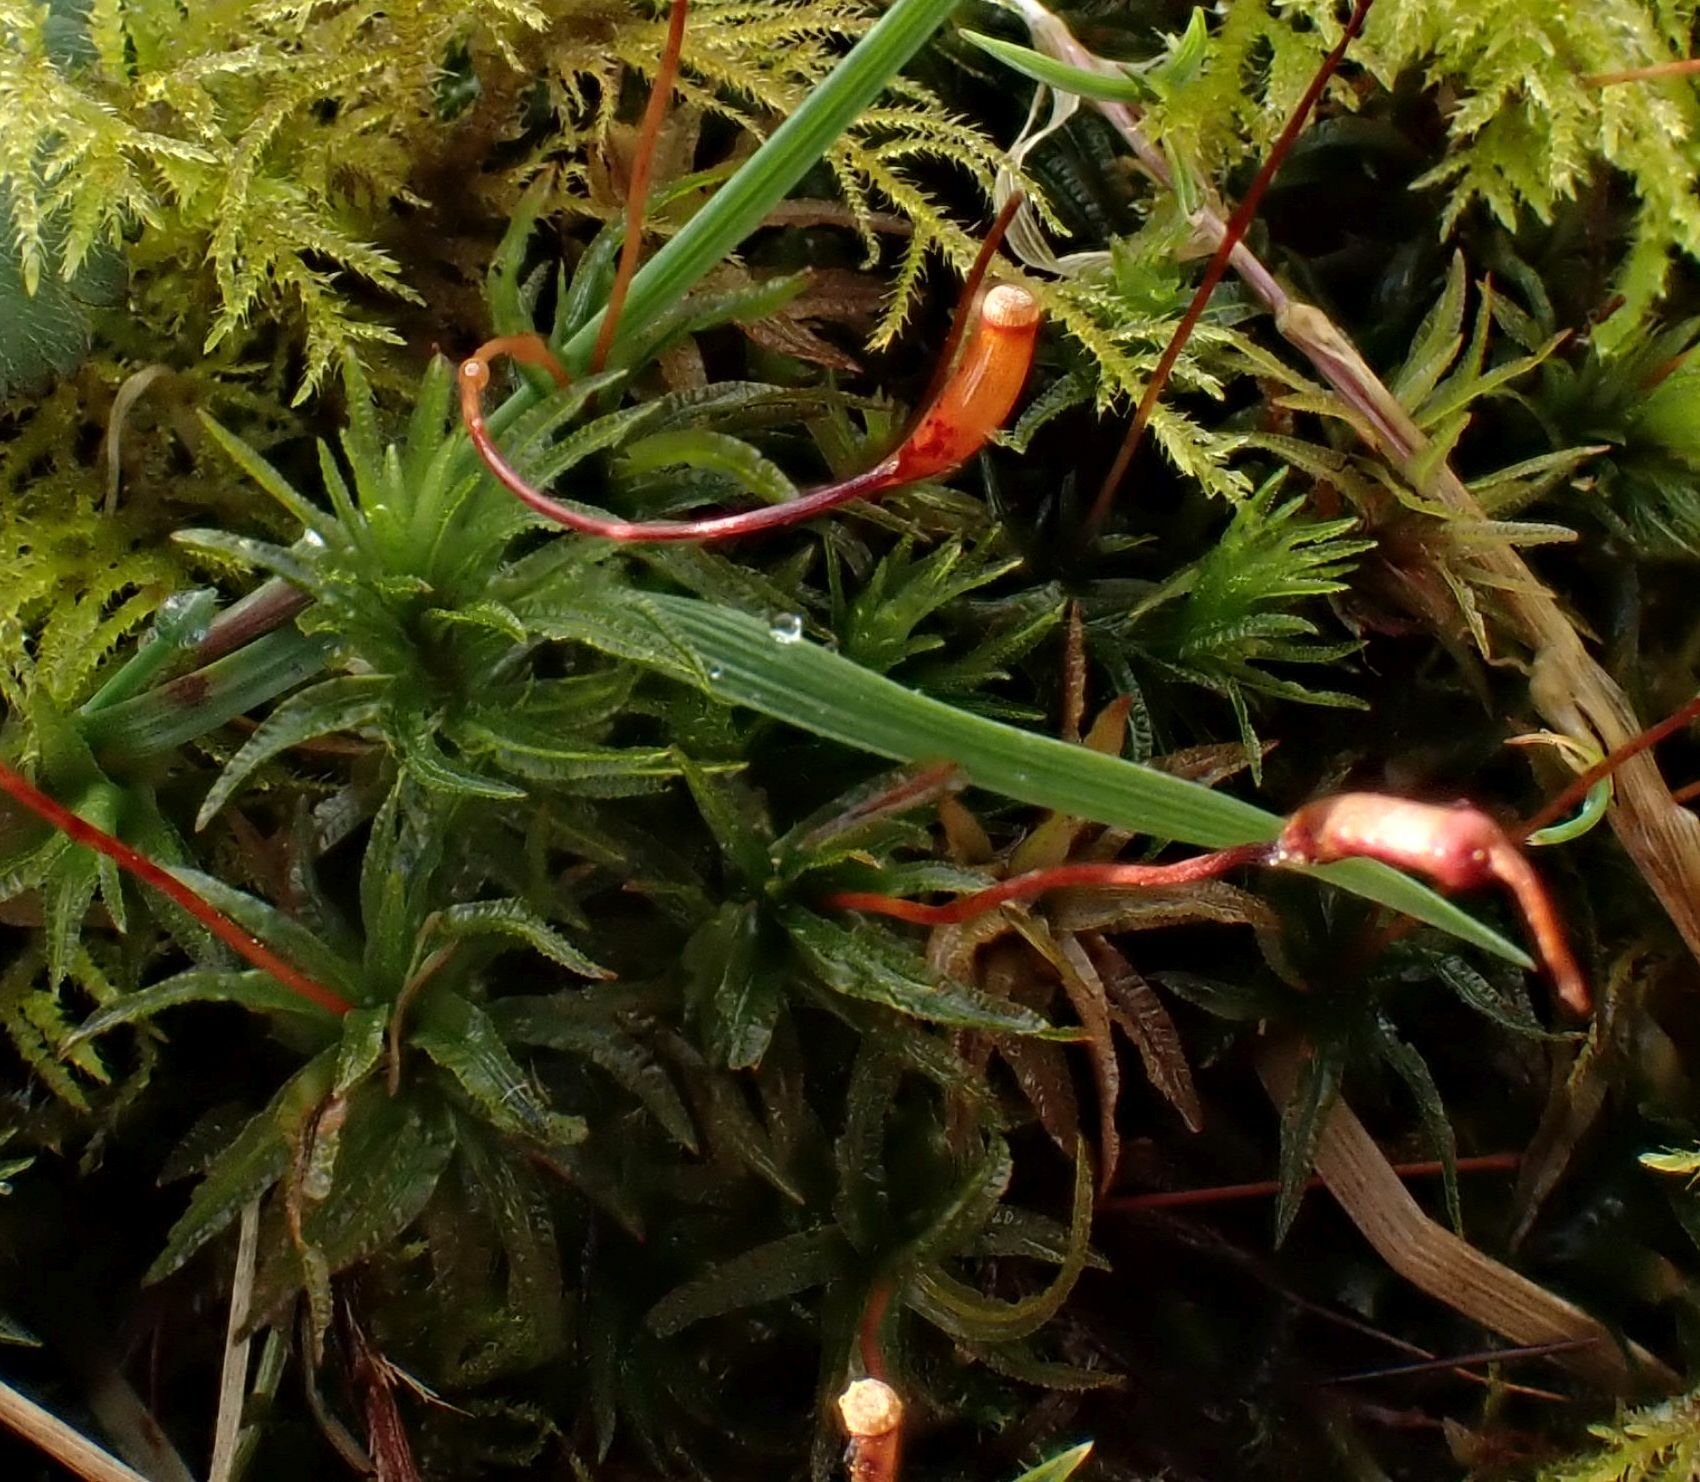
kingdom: Plantae
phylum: Bryophyta
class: Polytrichopsida
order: Polytrichales
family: Polytrichaceae
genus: Atrichum
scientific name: Atrichum undulatum
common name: Common smoothcap
